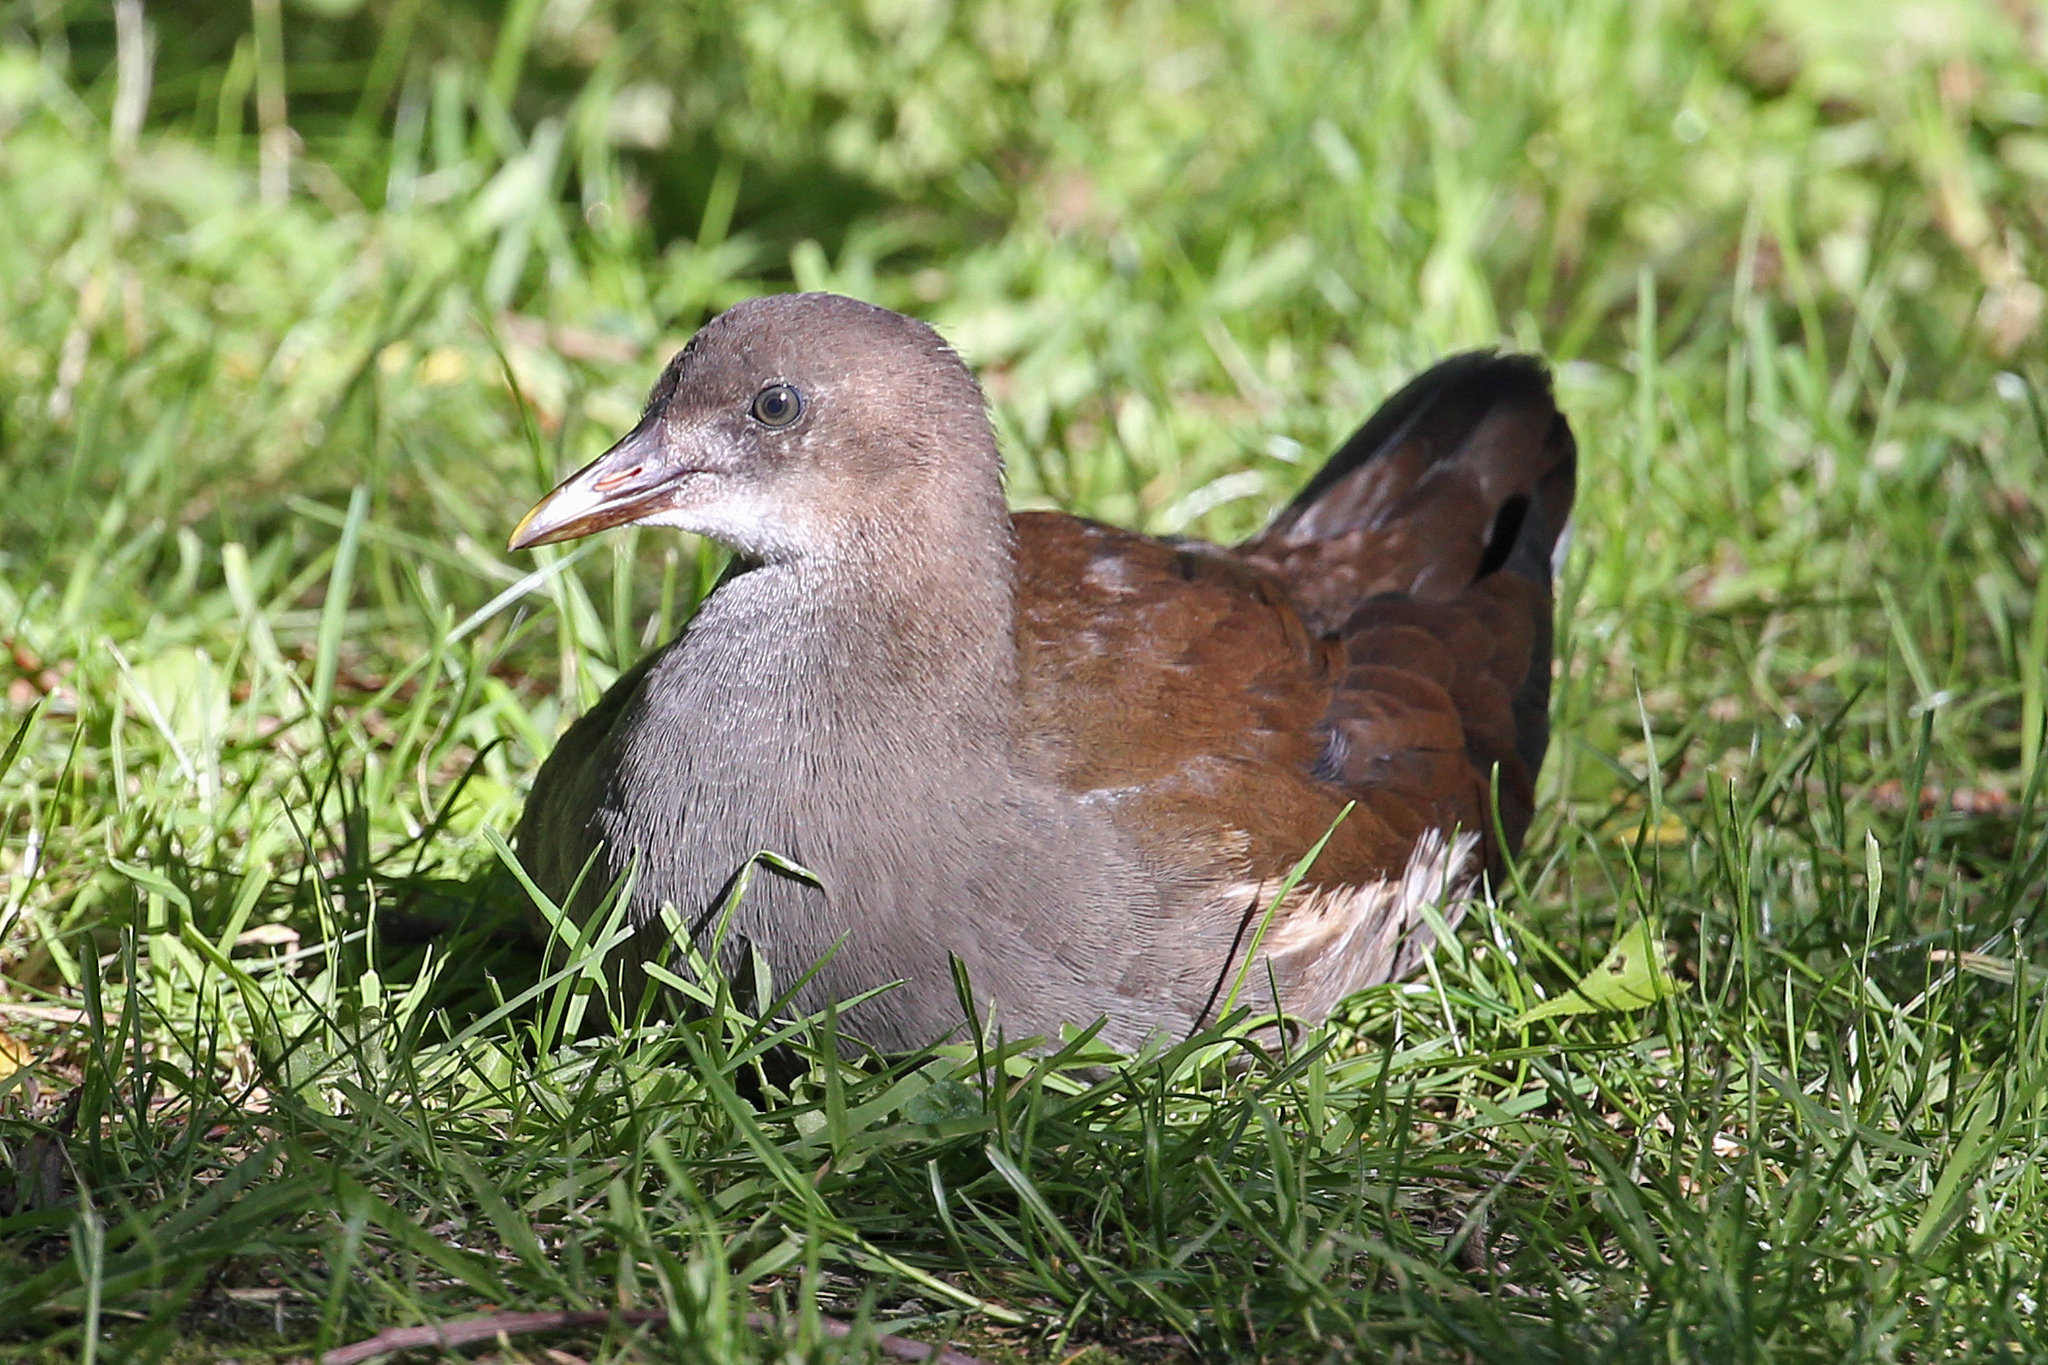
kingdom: Animalia
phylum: Chordata
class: Aves
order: Gruiformes
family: Rallidae
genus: Gallinula
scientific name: Gallinula chloropus
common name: Common moorhen
